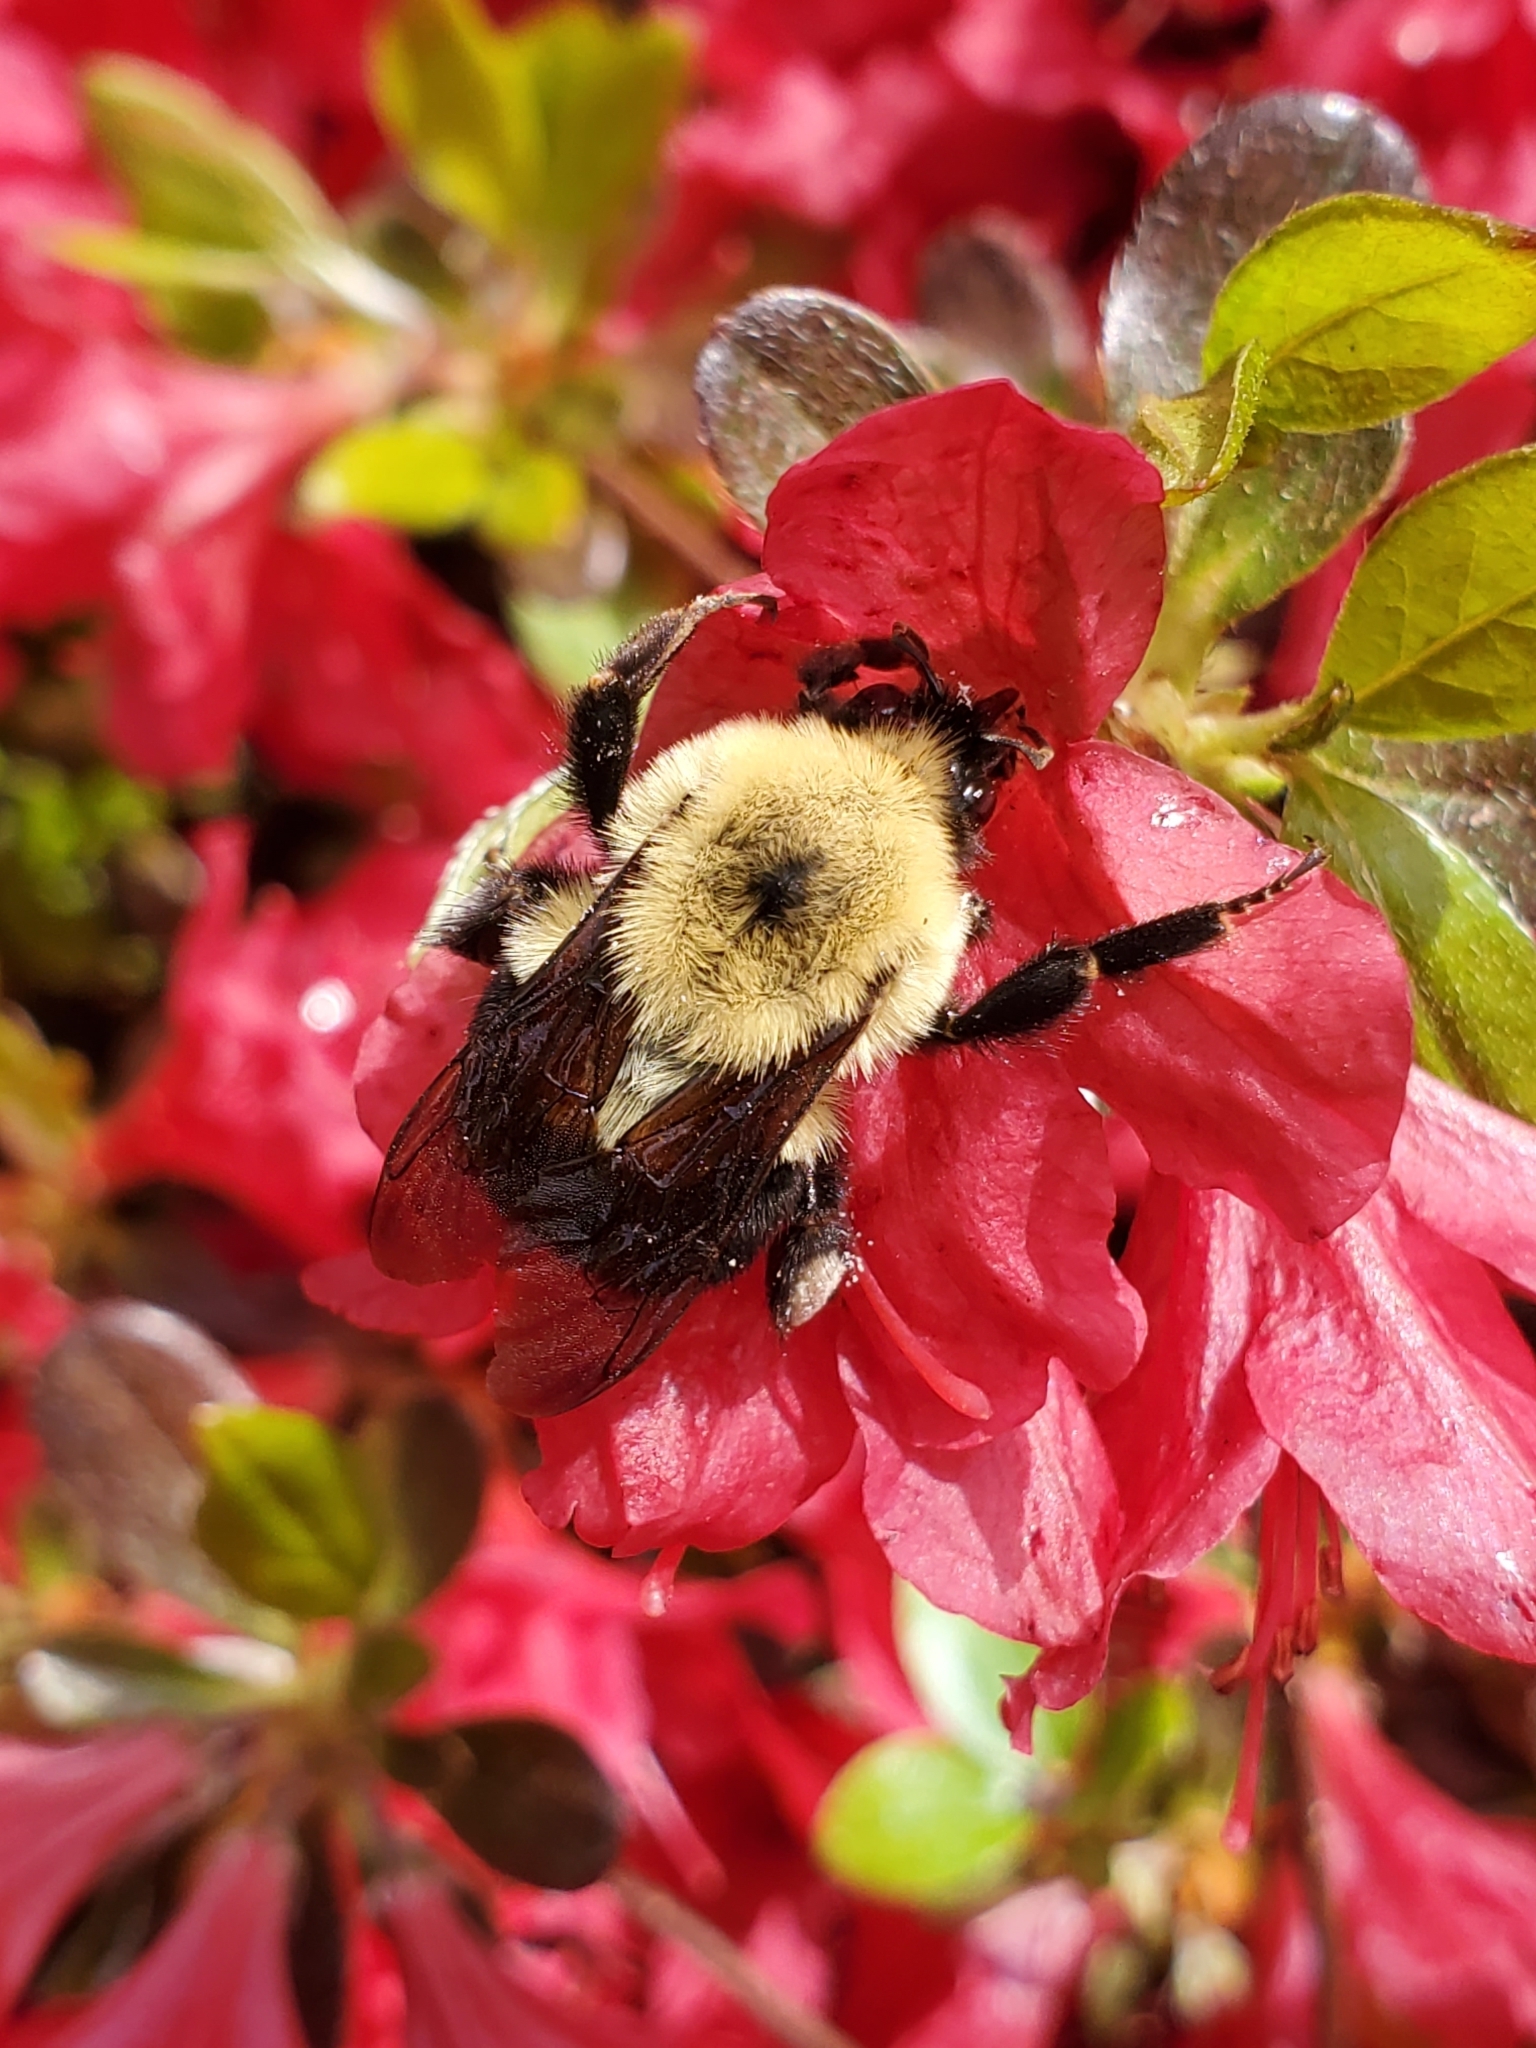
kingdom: Animalia
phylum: Arthropoda
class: Insecta
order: Hymenoptera
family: Apidae
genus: Bombus
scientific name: Bombus bimaculatus
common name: Two-spotted bumble bee
